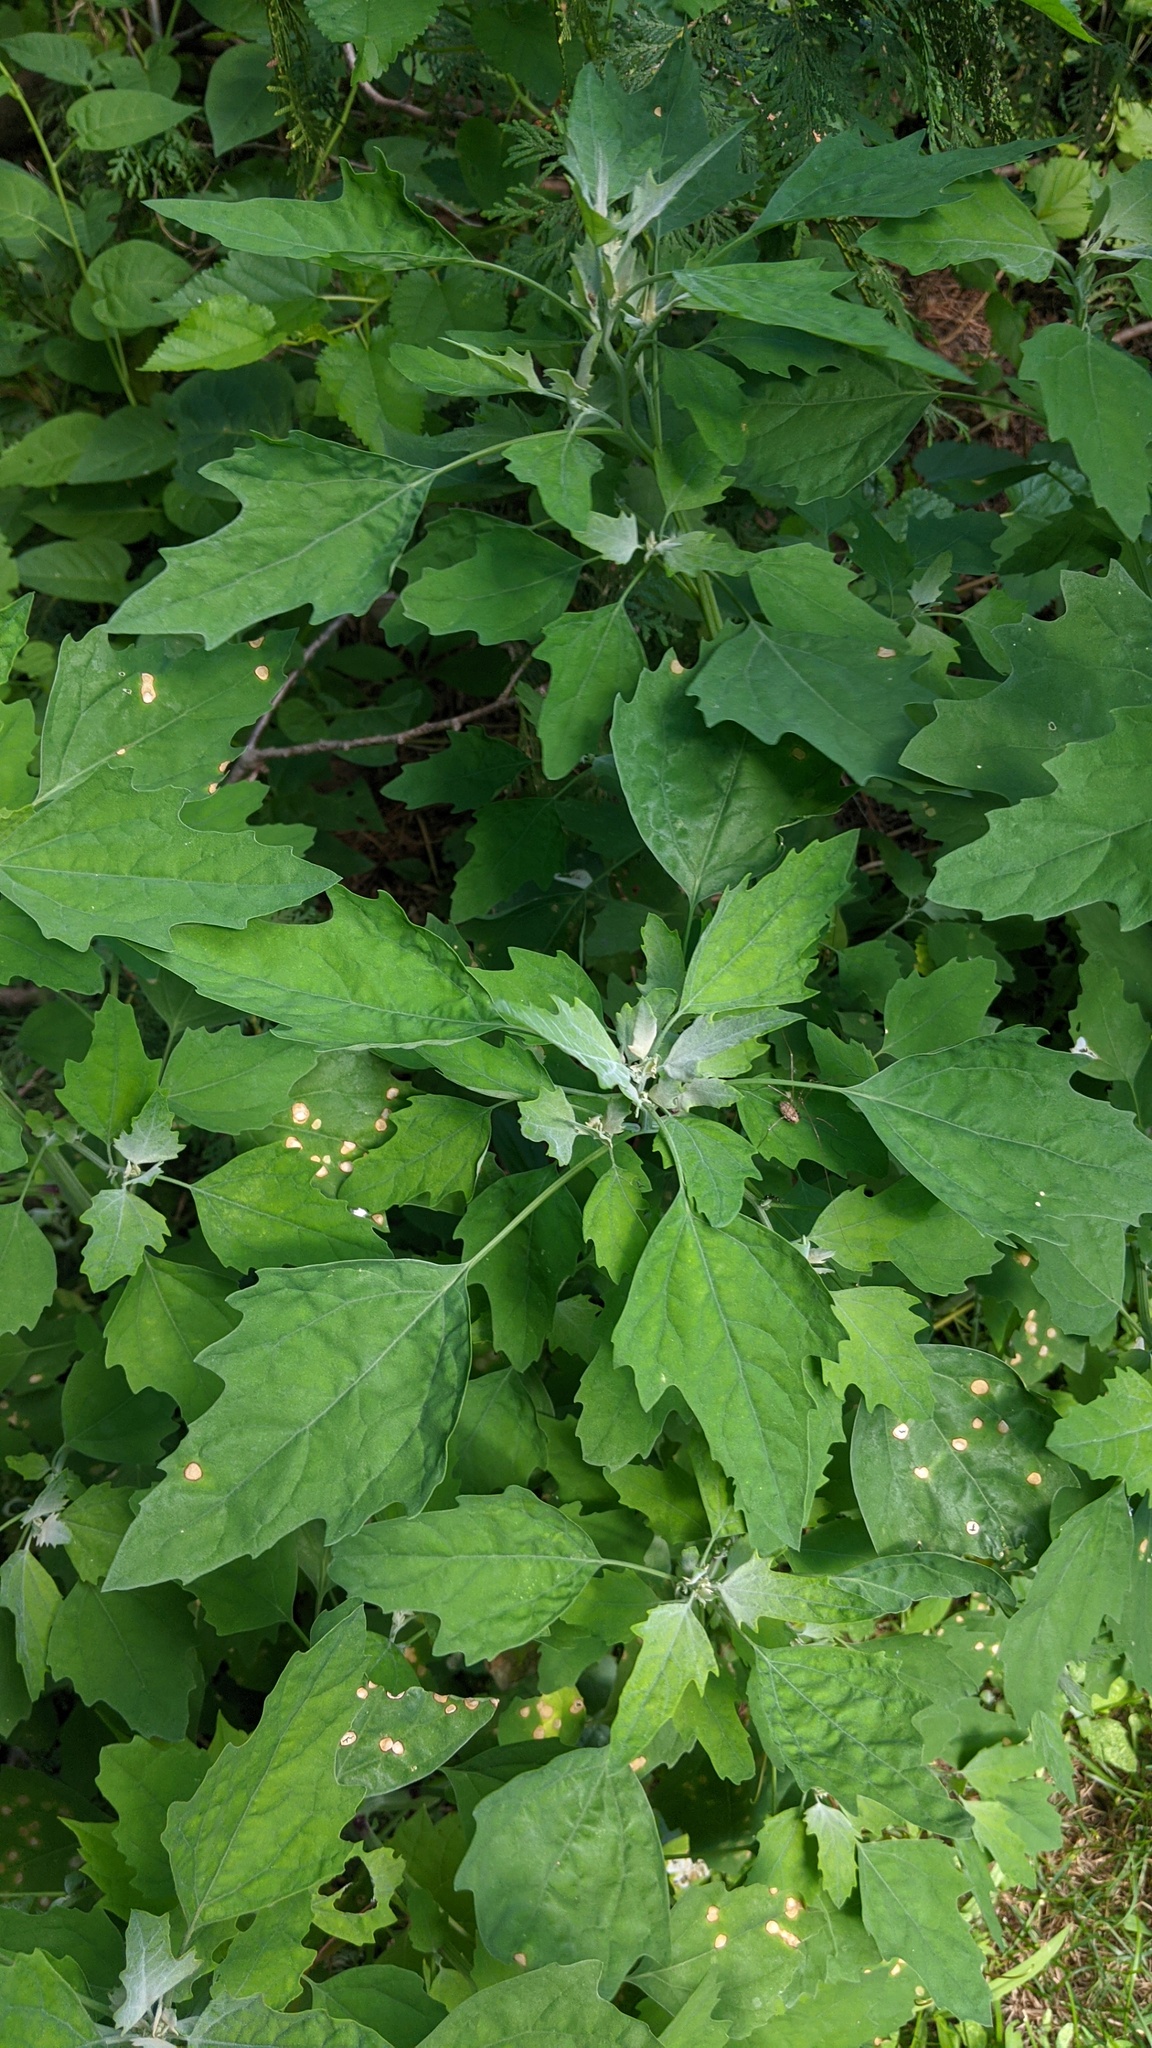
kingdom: Plantae
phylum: Tracheophyta
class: Magnoliopsida
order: Caryophyllales
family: Amaranthaceae
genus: Chenopodium
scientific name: Chenopodium album
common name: Fat-hen
